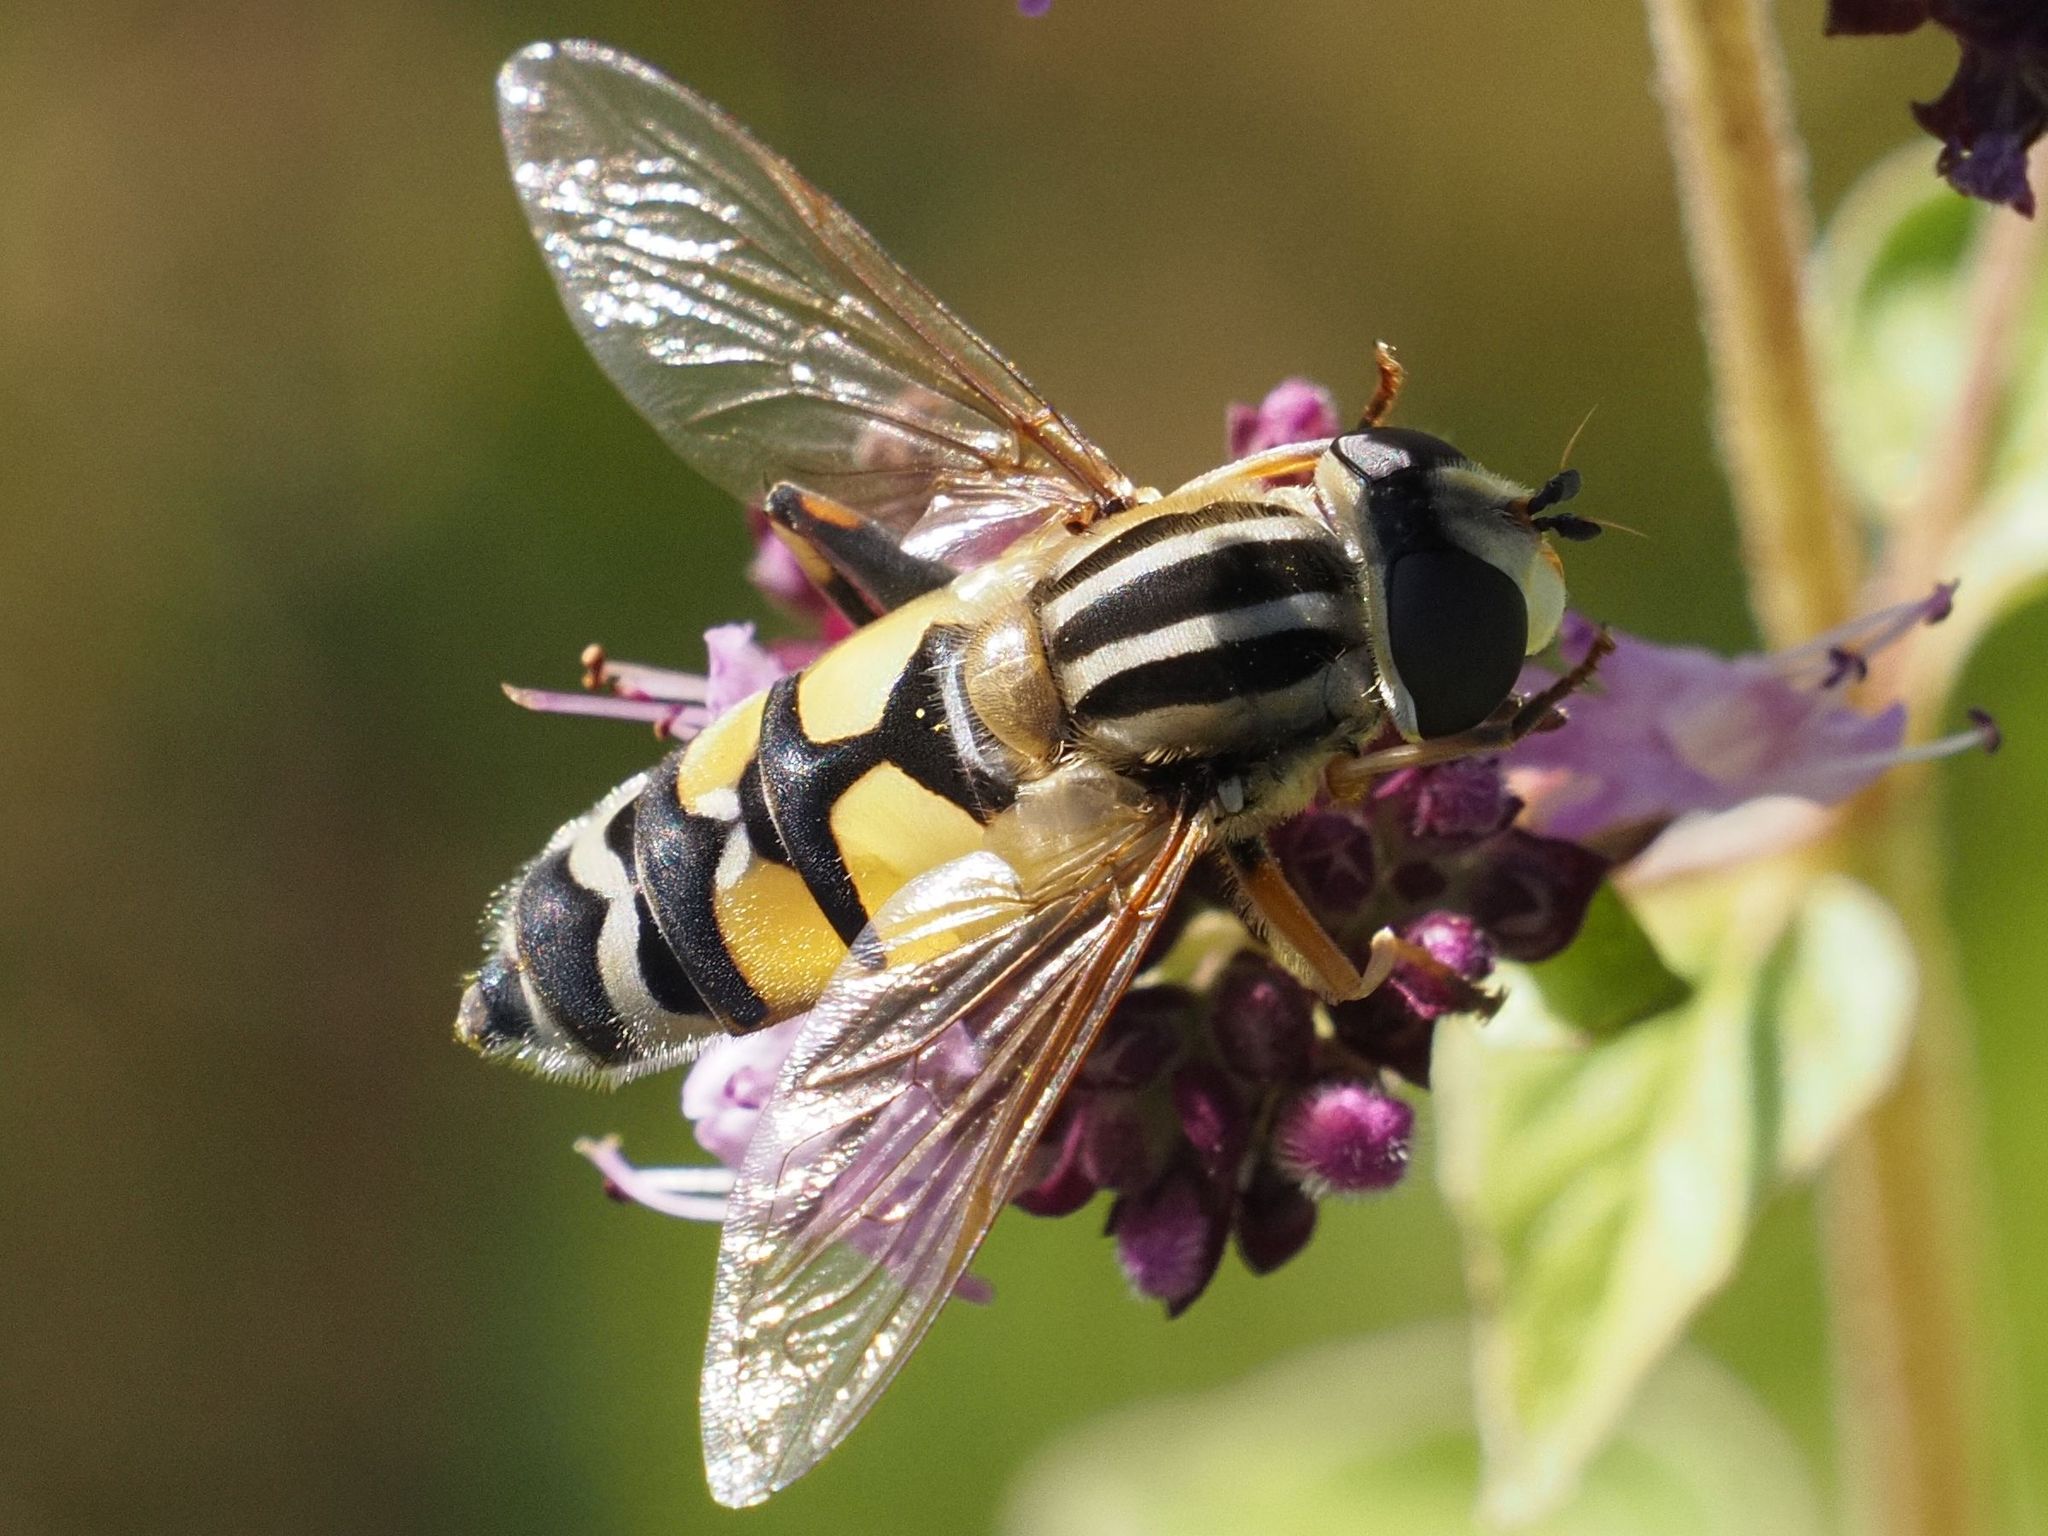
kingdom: Animalia
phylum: Arthropoda
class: Insecta
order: Diptera
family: Syrphidae
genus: Helophilus
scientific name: Helophilus trivittatus
